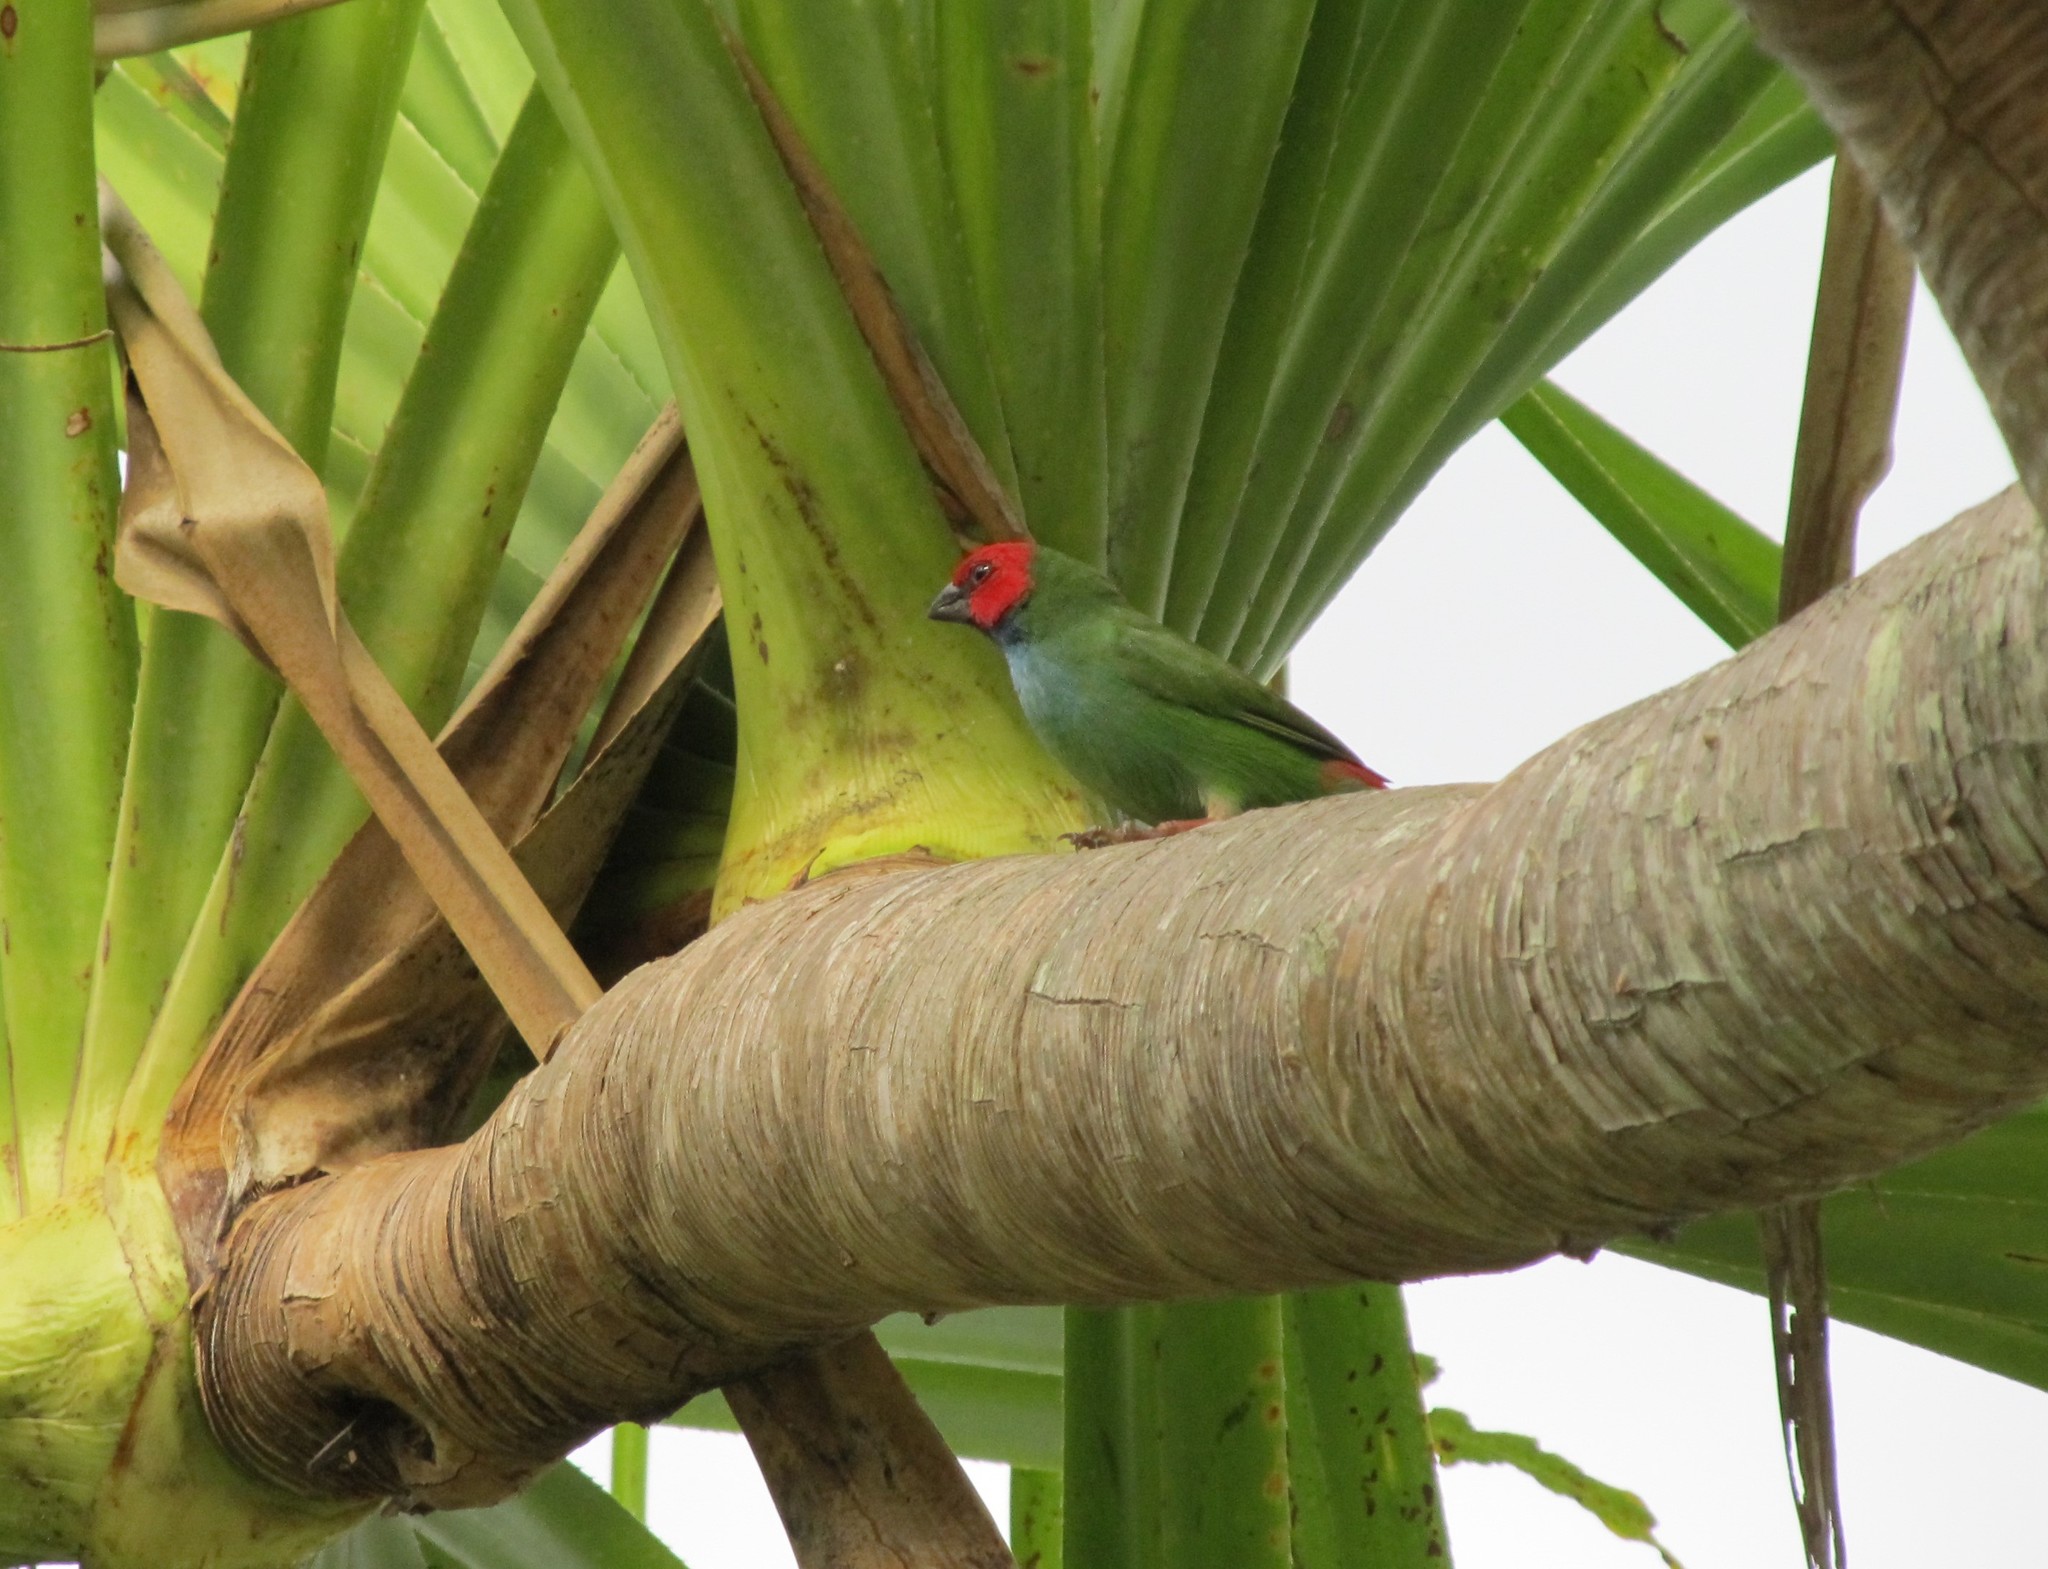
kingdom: Animalia
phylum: Chordata
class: Aves
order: Passeriformes
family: Estrildidae
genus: Erythrura
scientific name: Erythrura pealii
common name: Fiji parrotfinch
